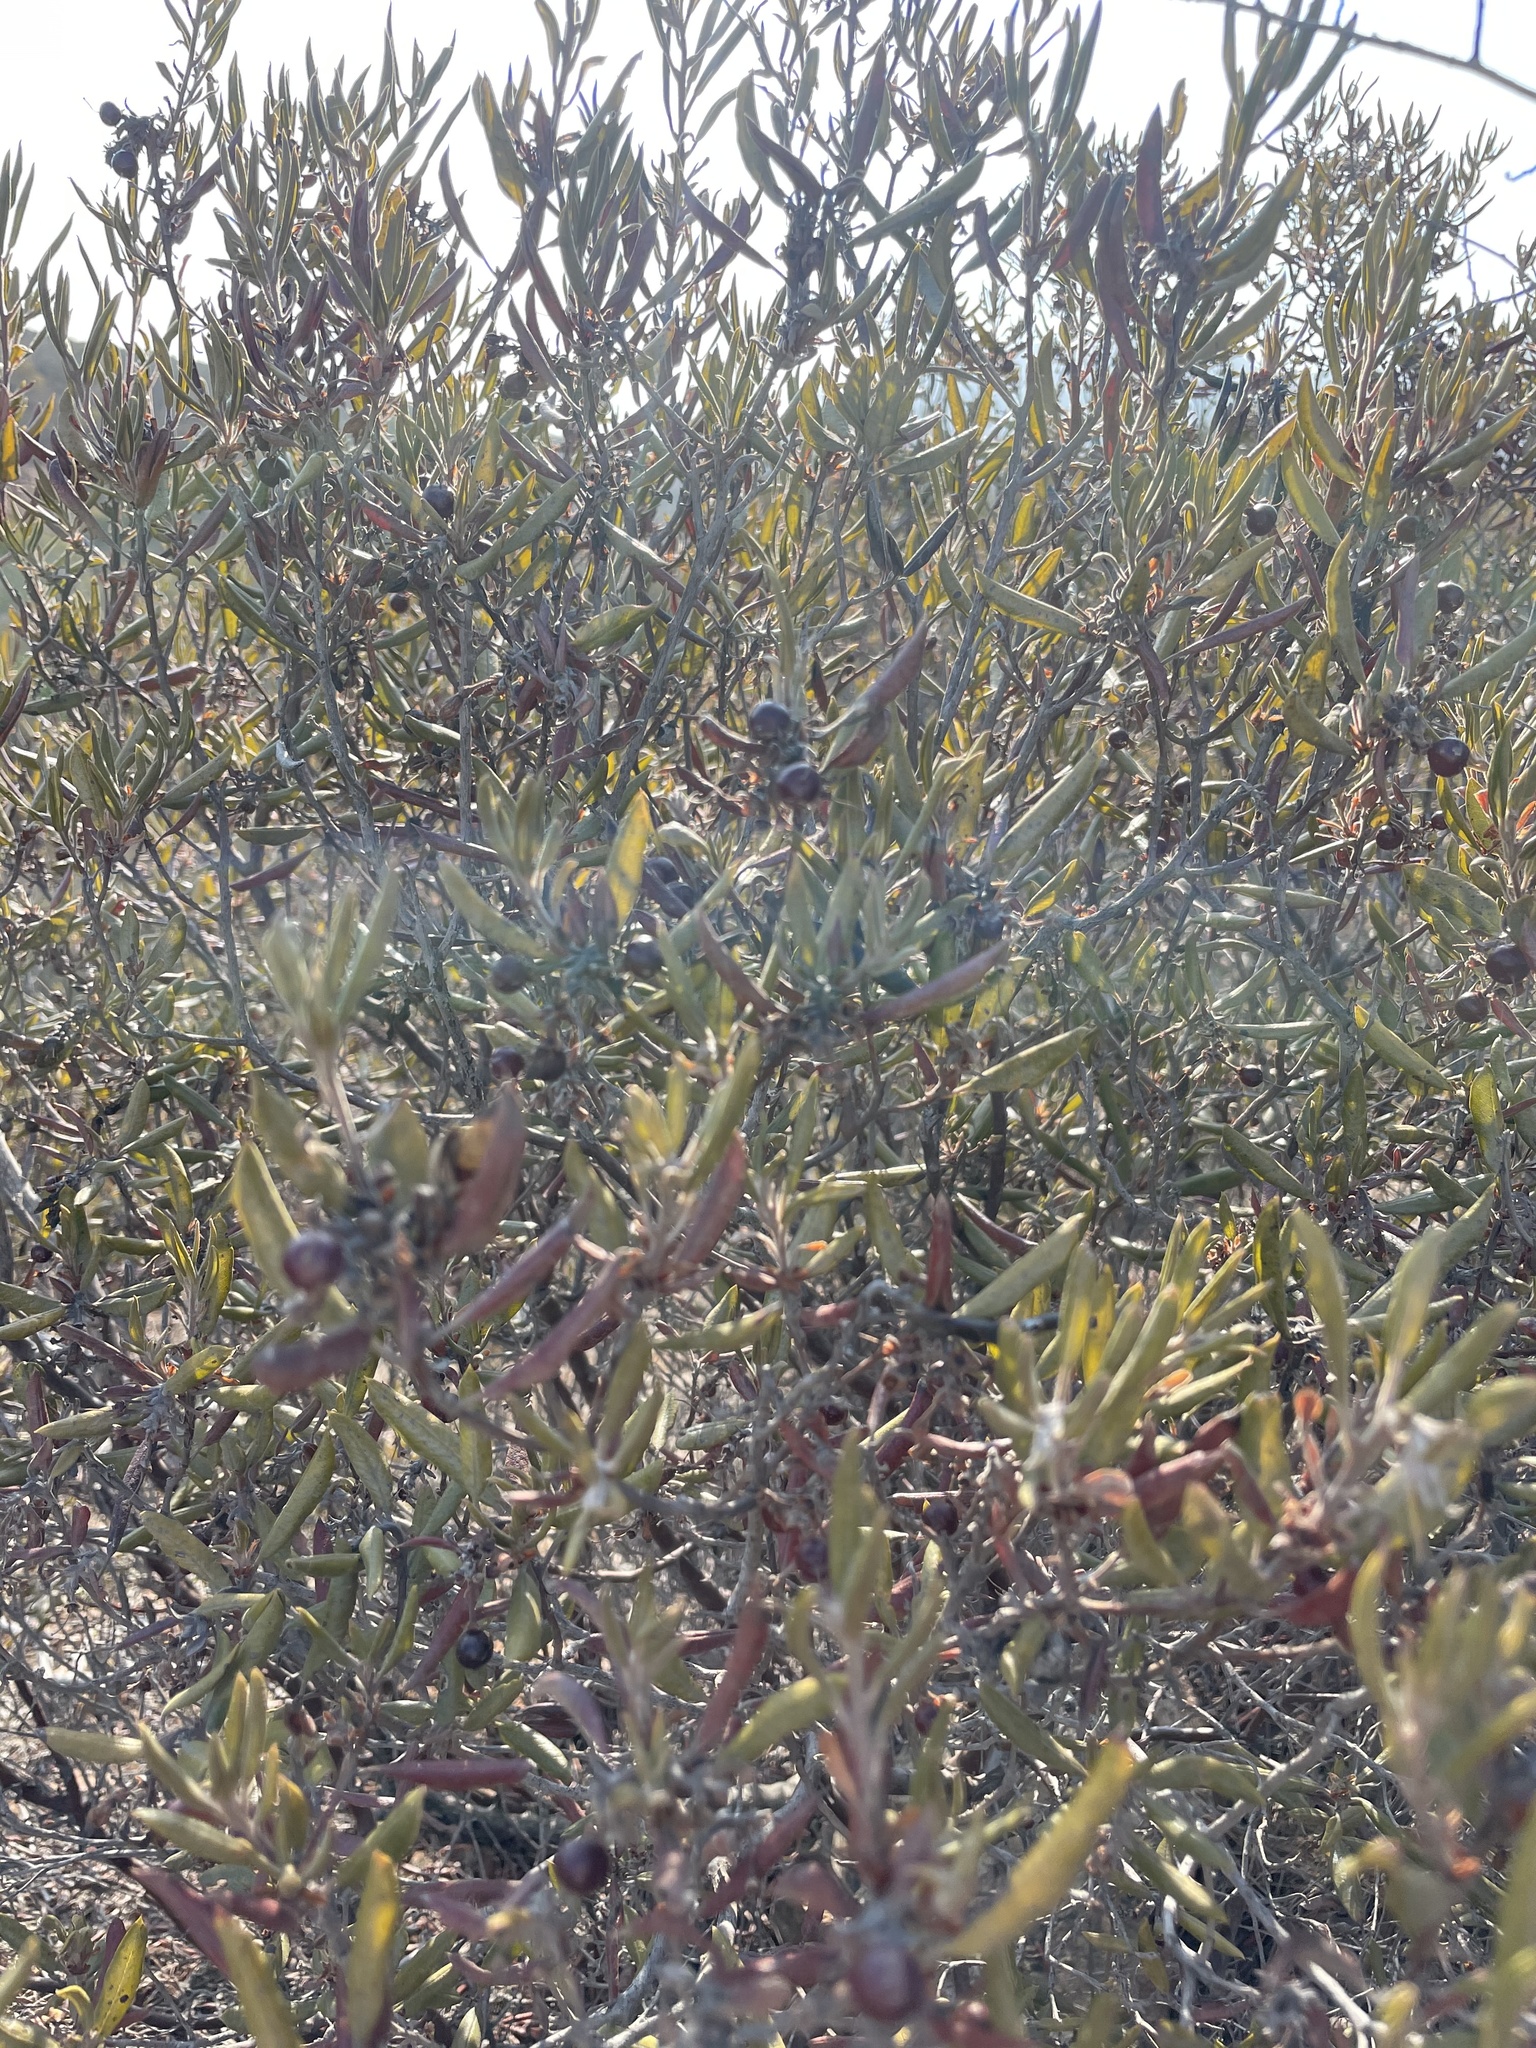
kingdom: Plantae
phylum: Tracheophyta
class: Magnoliopsida
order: Ericales
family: Ericaceae
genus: Arctostaphylos
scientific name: Arctostaphylos bicolor
